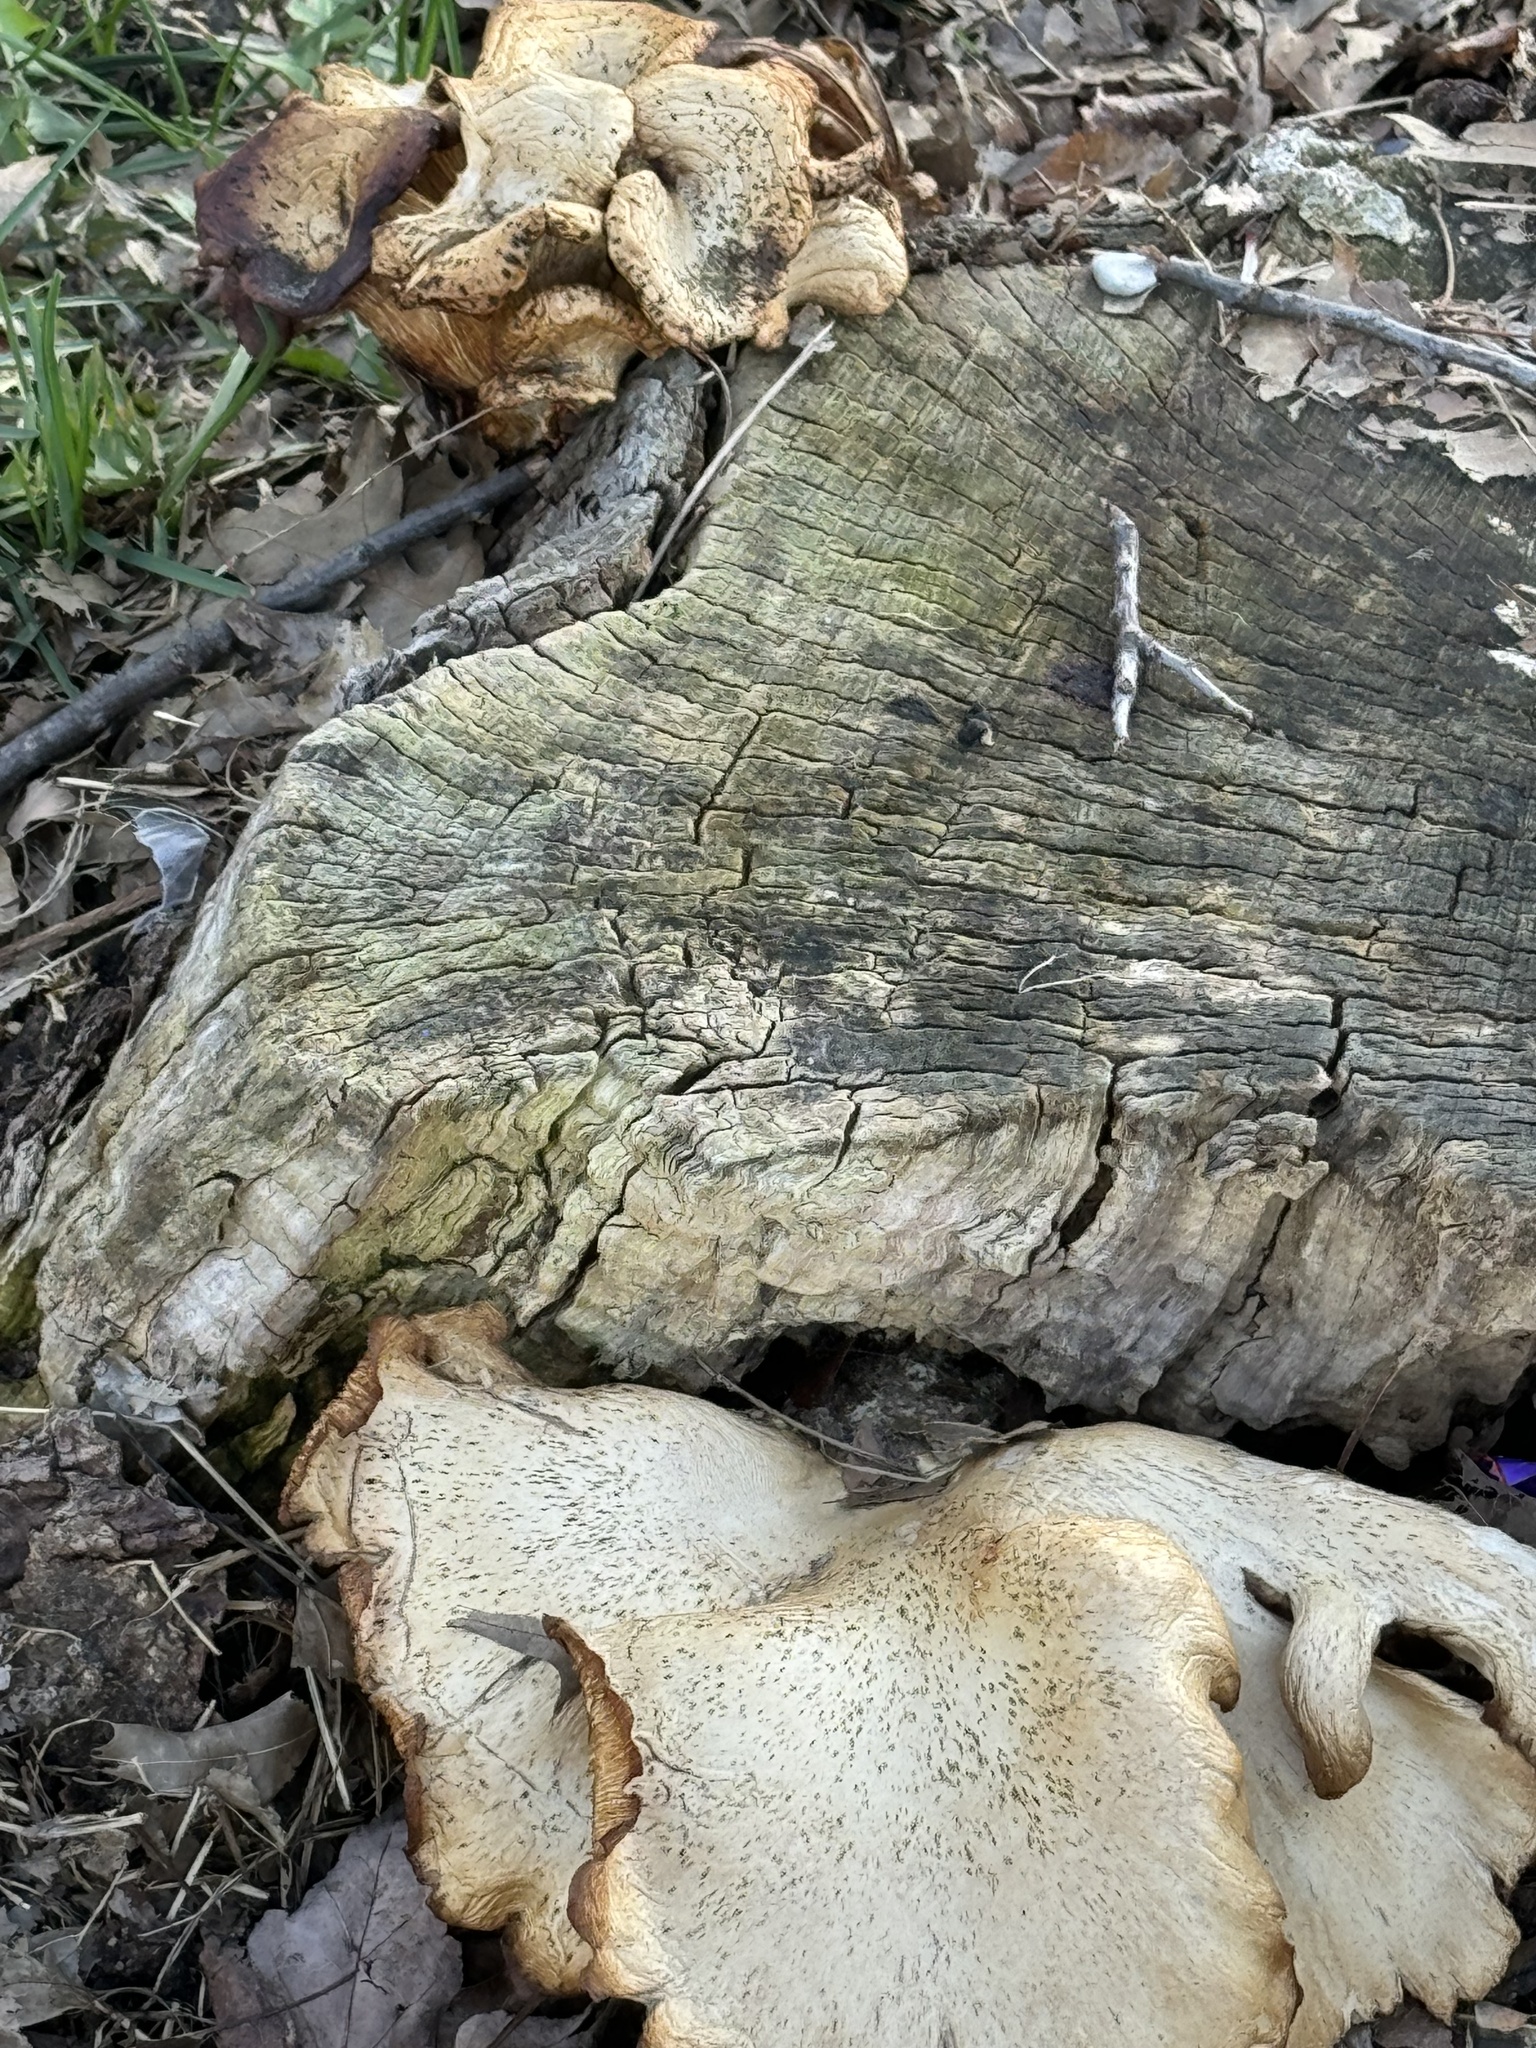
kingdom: Fungi
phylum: Basidiomycota
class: Agaricomycetes
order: Agaricales
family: Pleurotaceae
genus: Pleurotus
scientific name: Pleurotus ostreatus
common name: Oyster mushroom
